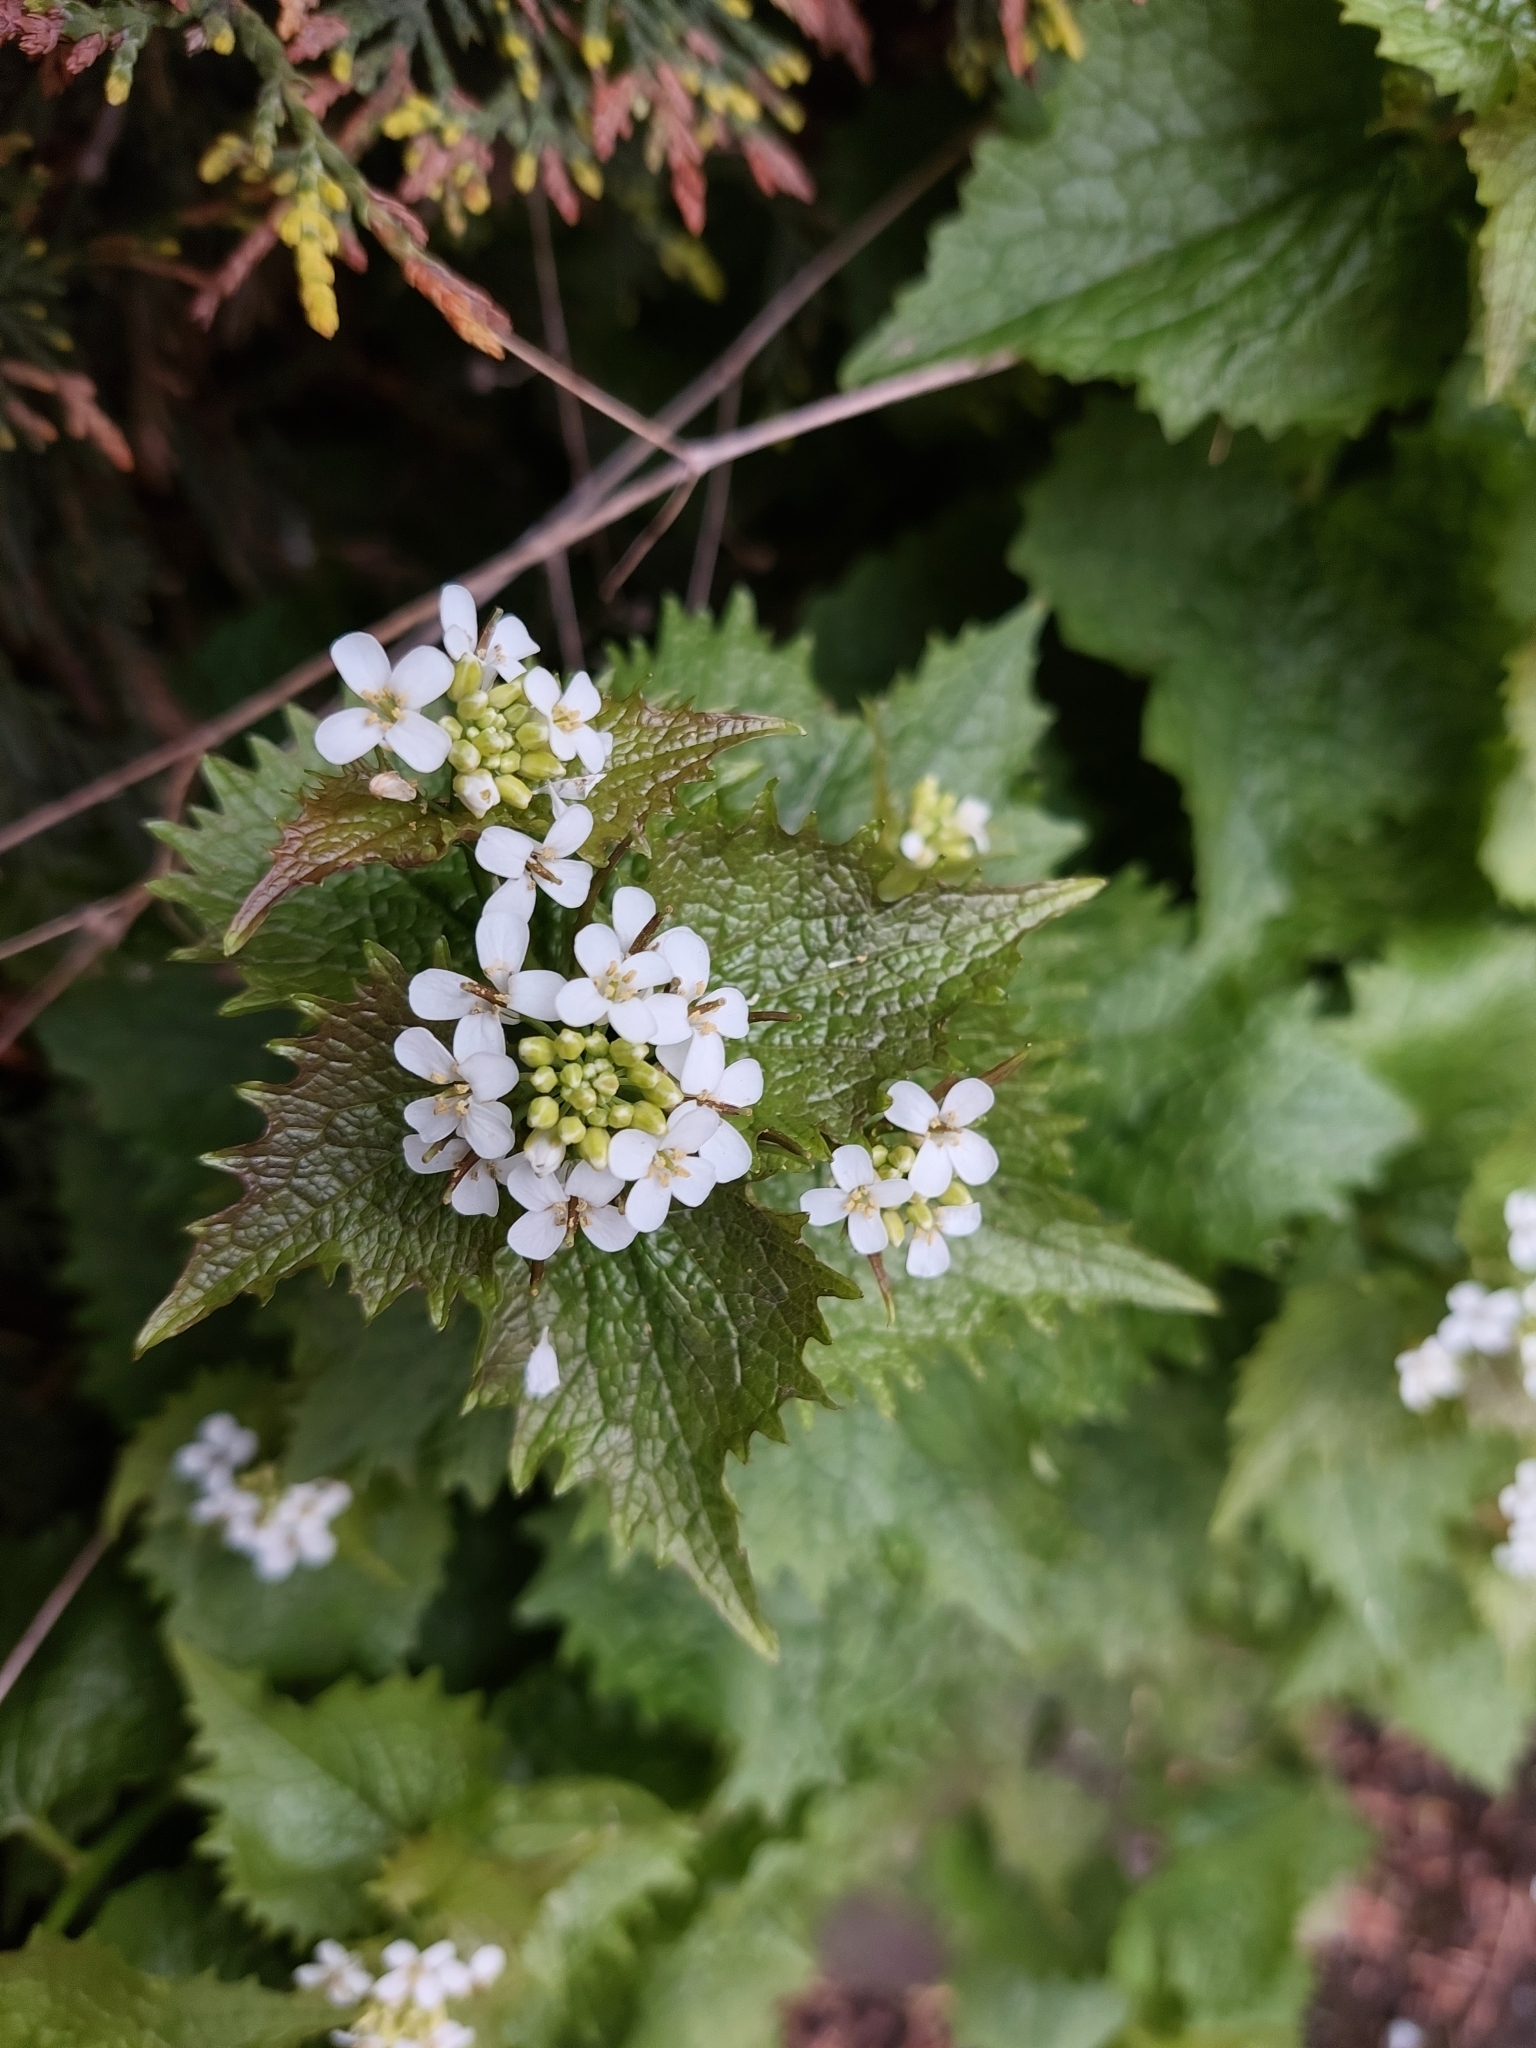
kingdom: Plantae
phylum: Tracheophyta
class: Magnoliopsida
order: Brassicales
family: Brassicaceae
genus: Alliaria
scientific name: Alliaria petiolata
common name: Garlic mustard
